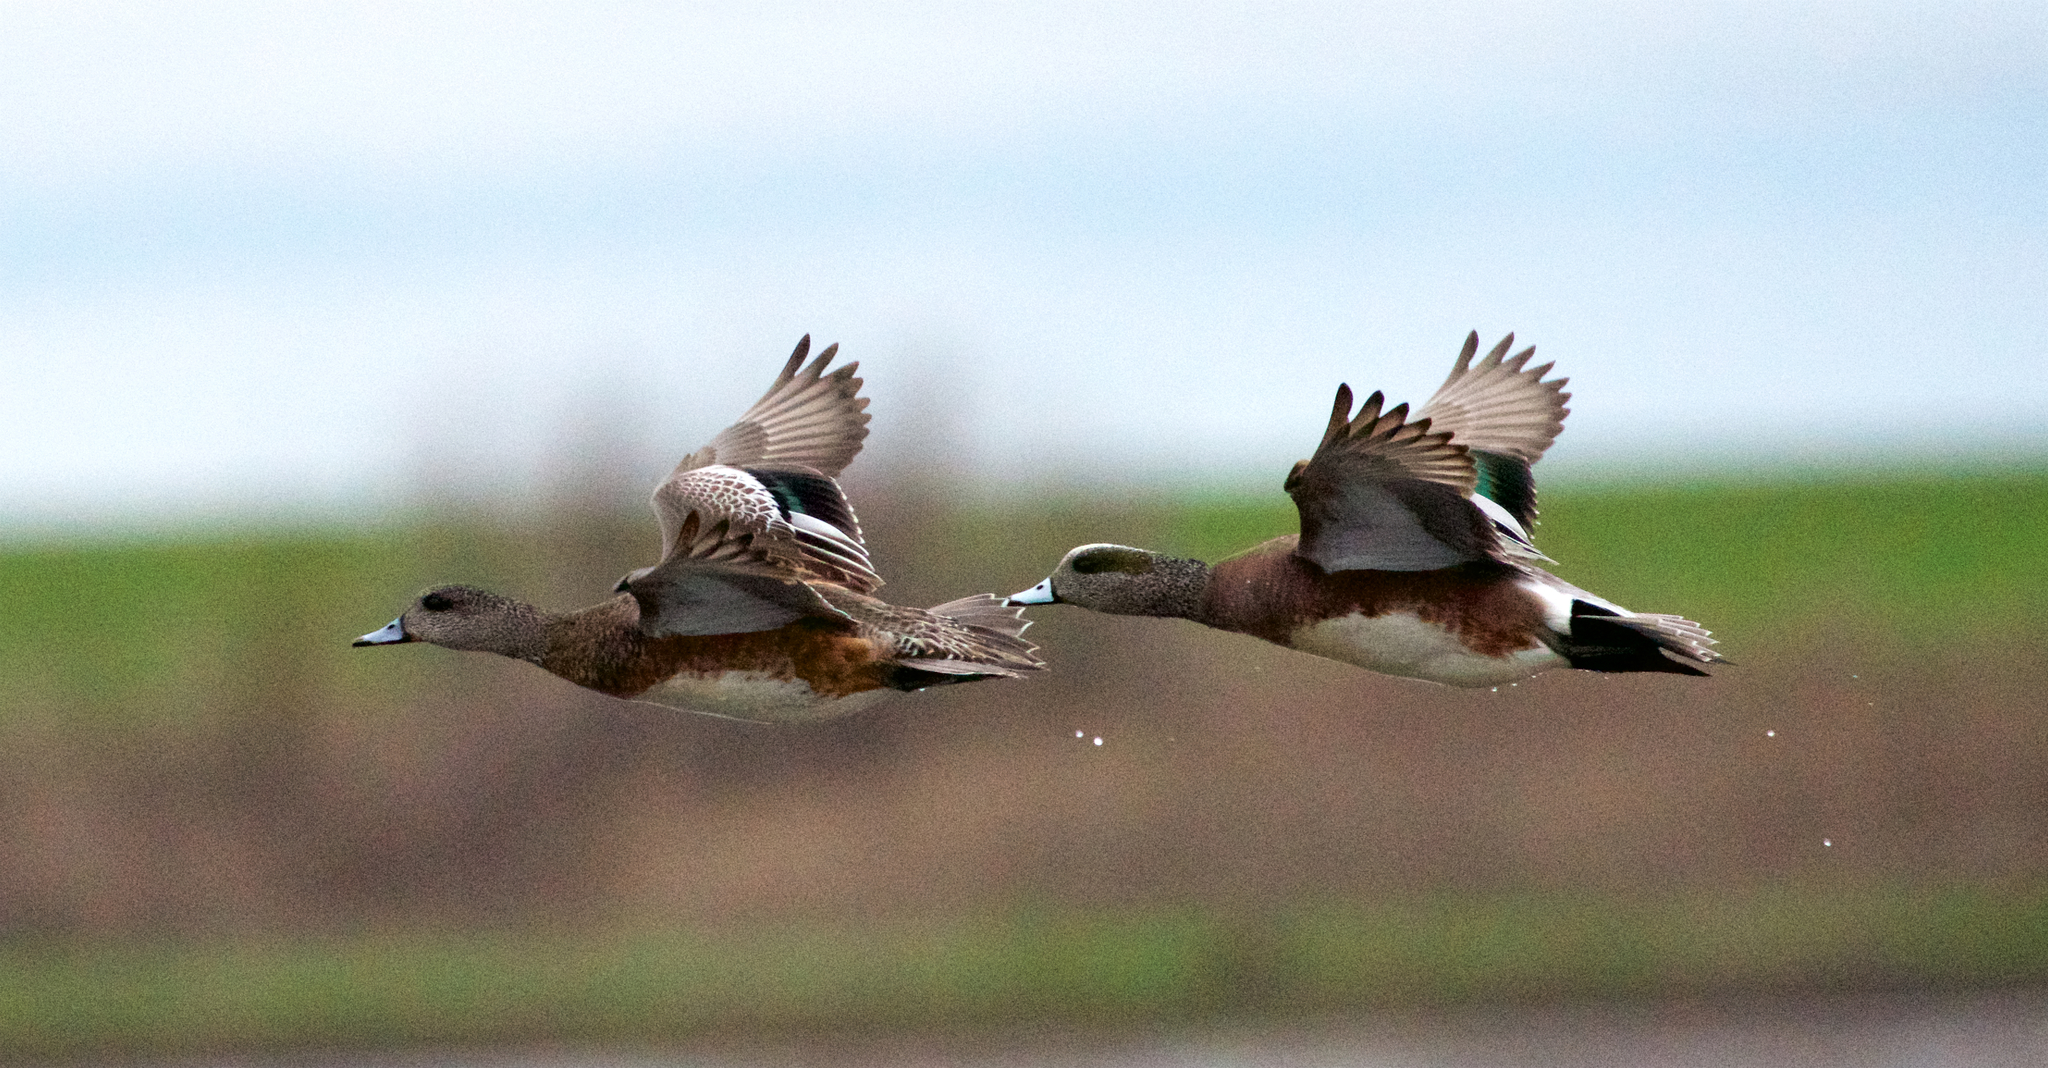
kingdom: Animalia
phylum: Chordata
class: Aves
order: Anseriformes
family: Anatidae
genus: Mareca
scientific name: Mareca americana
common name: American wigeon
